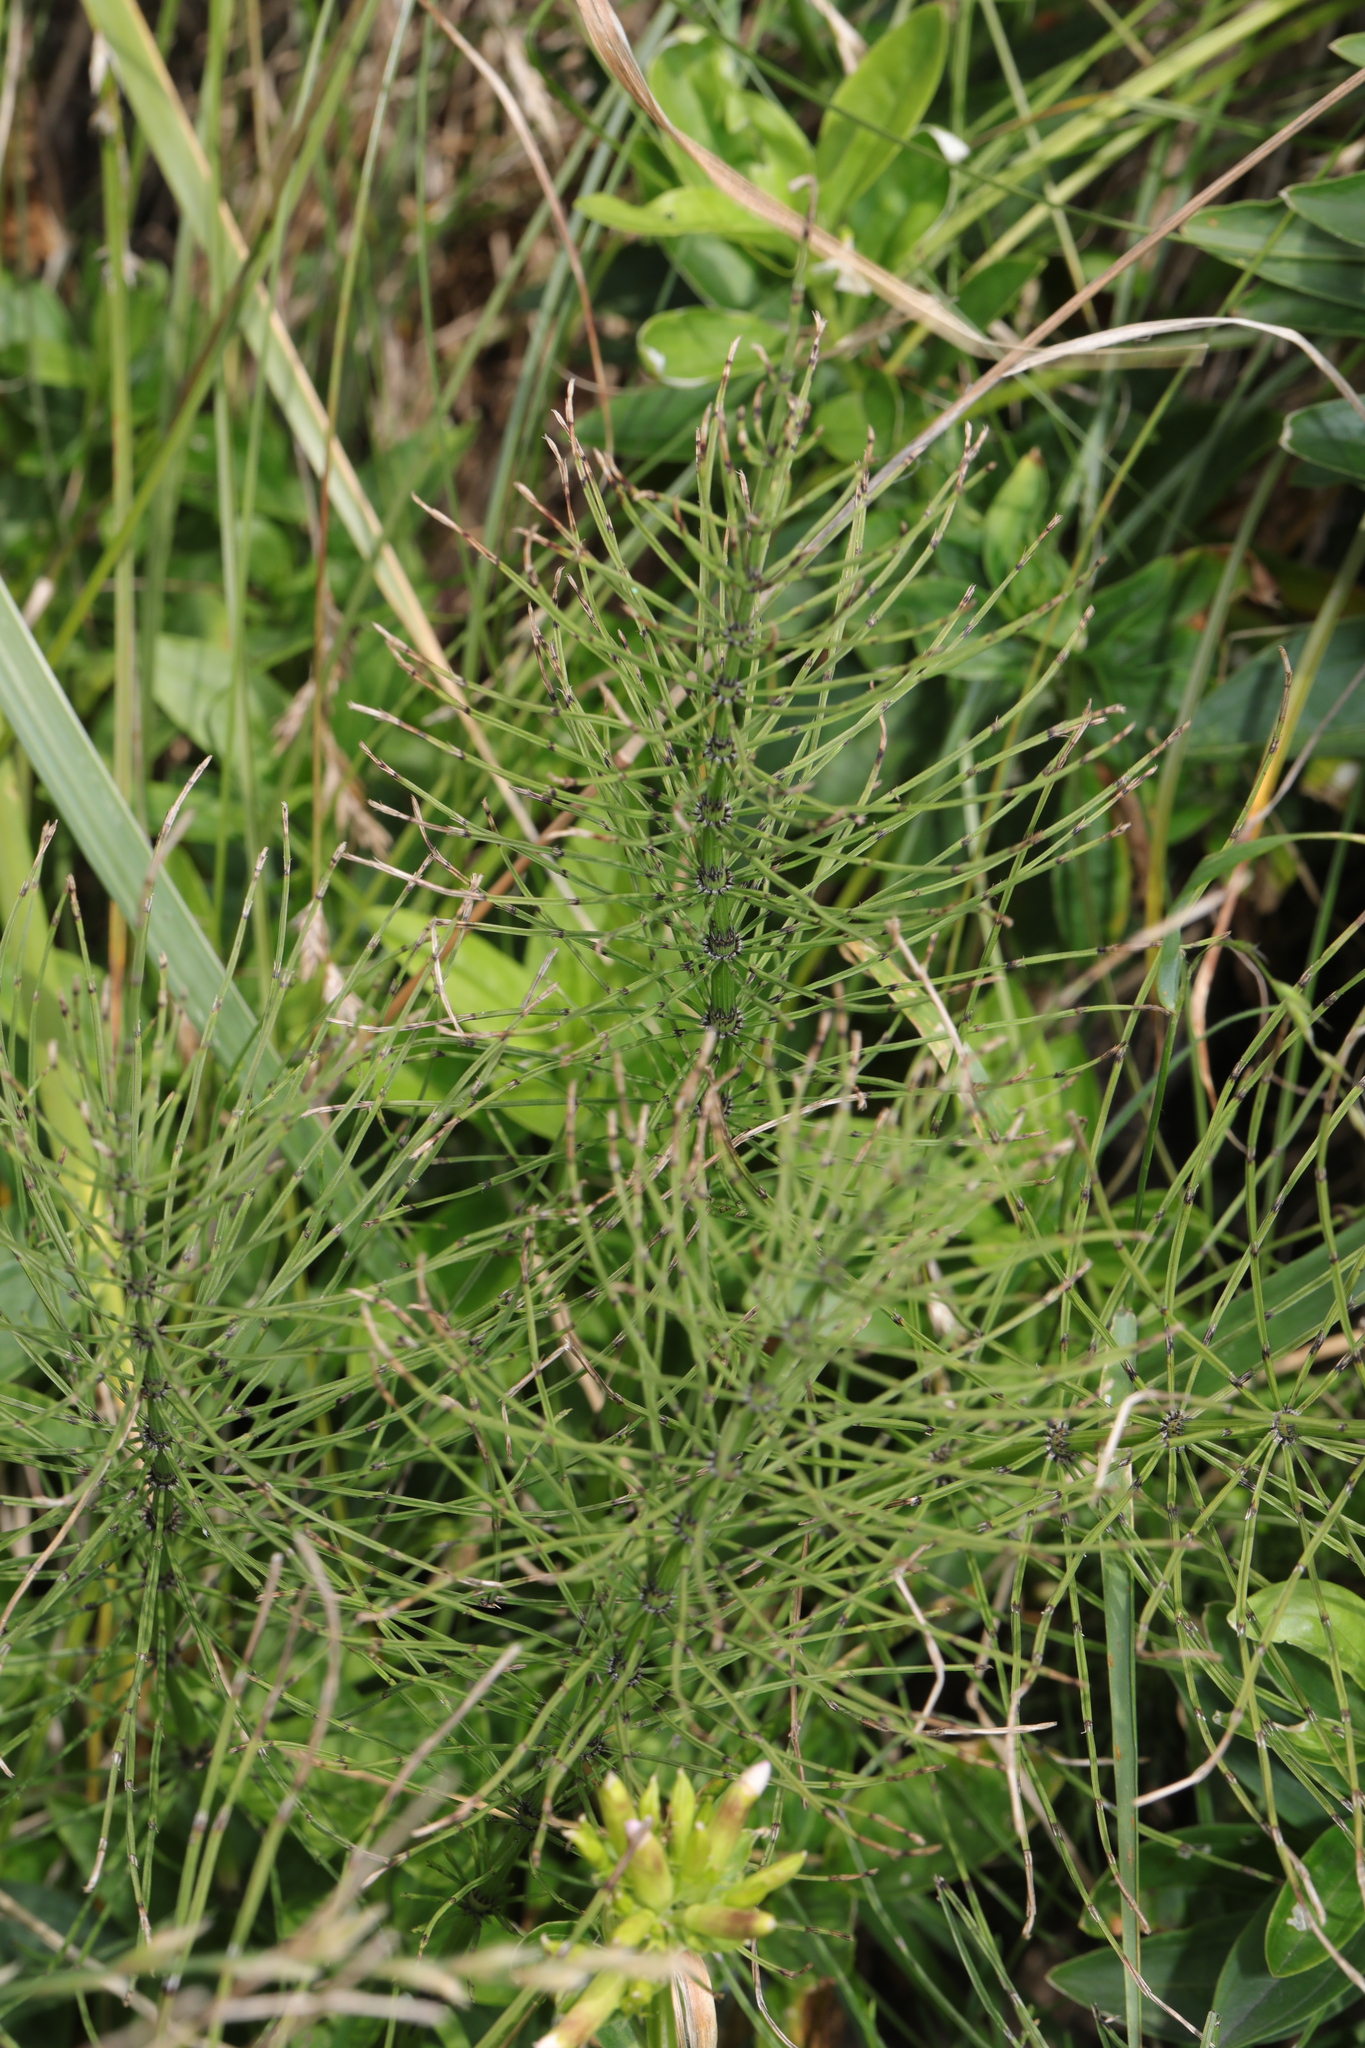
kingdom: Plantae
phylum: Tracheophyta
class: Polypodiopsida
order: Equisetales
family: Equisetaceae
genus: Equisetum
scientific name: Equisetum arvense
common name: Field horsetail
